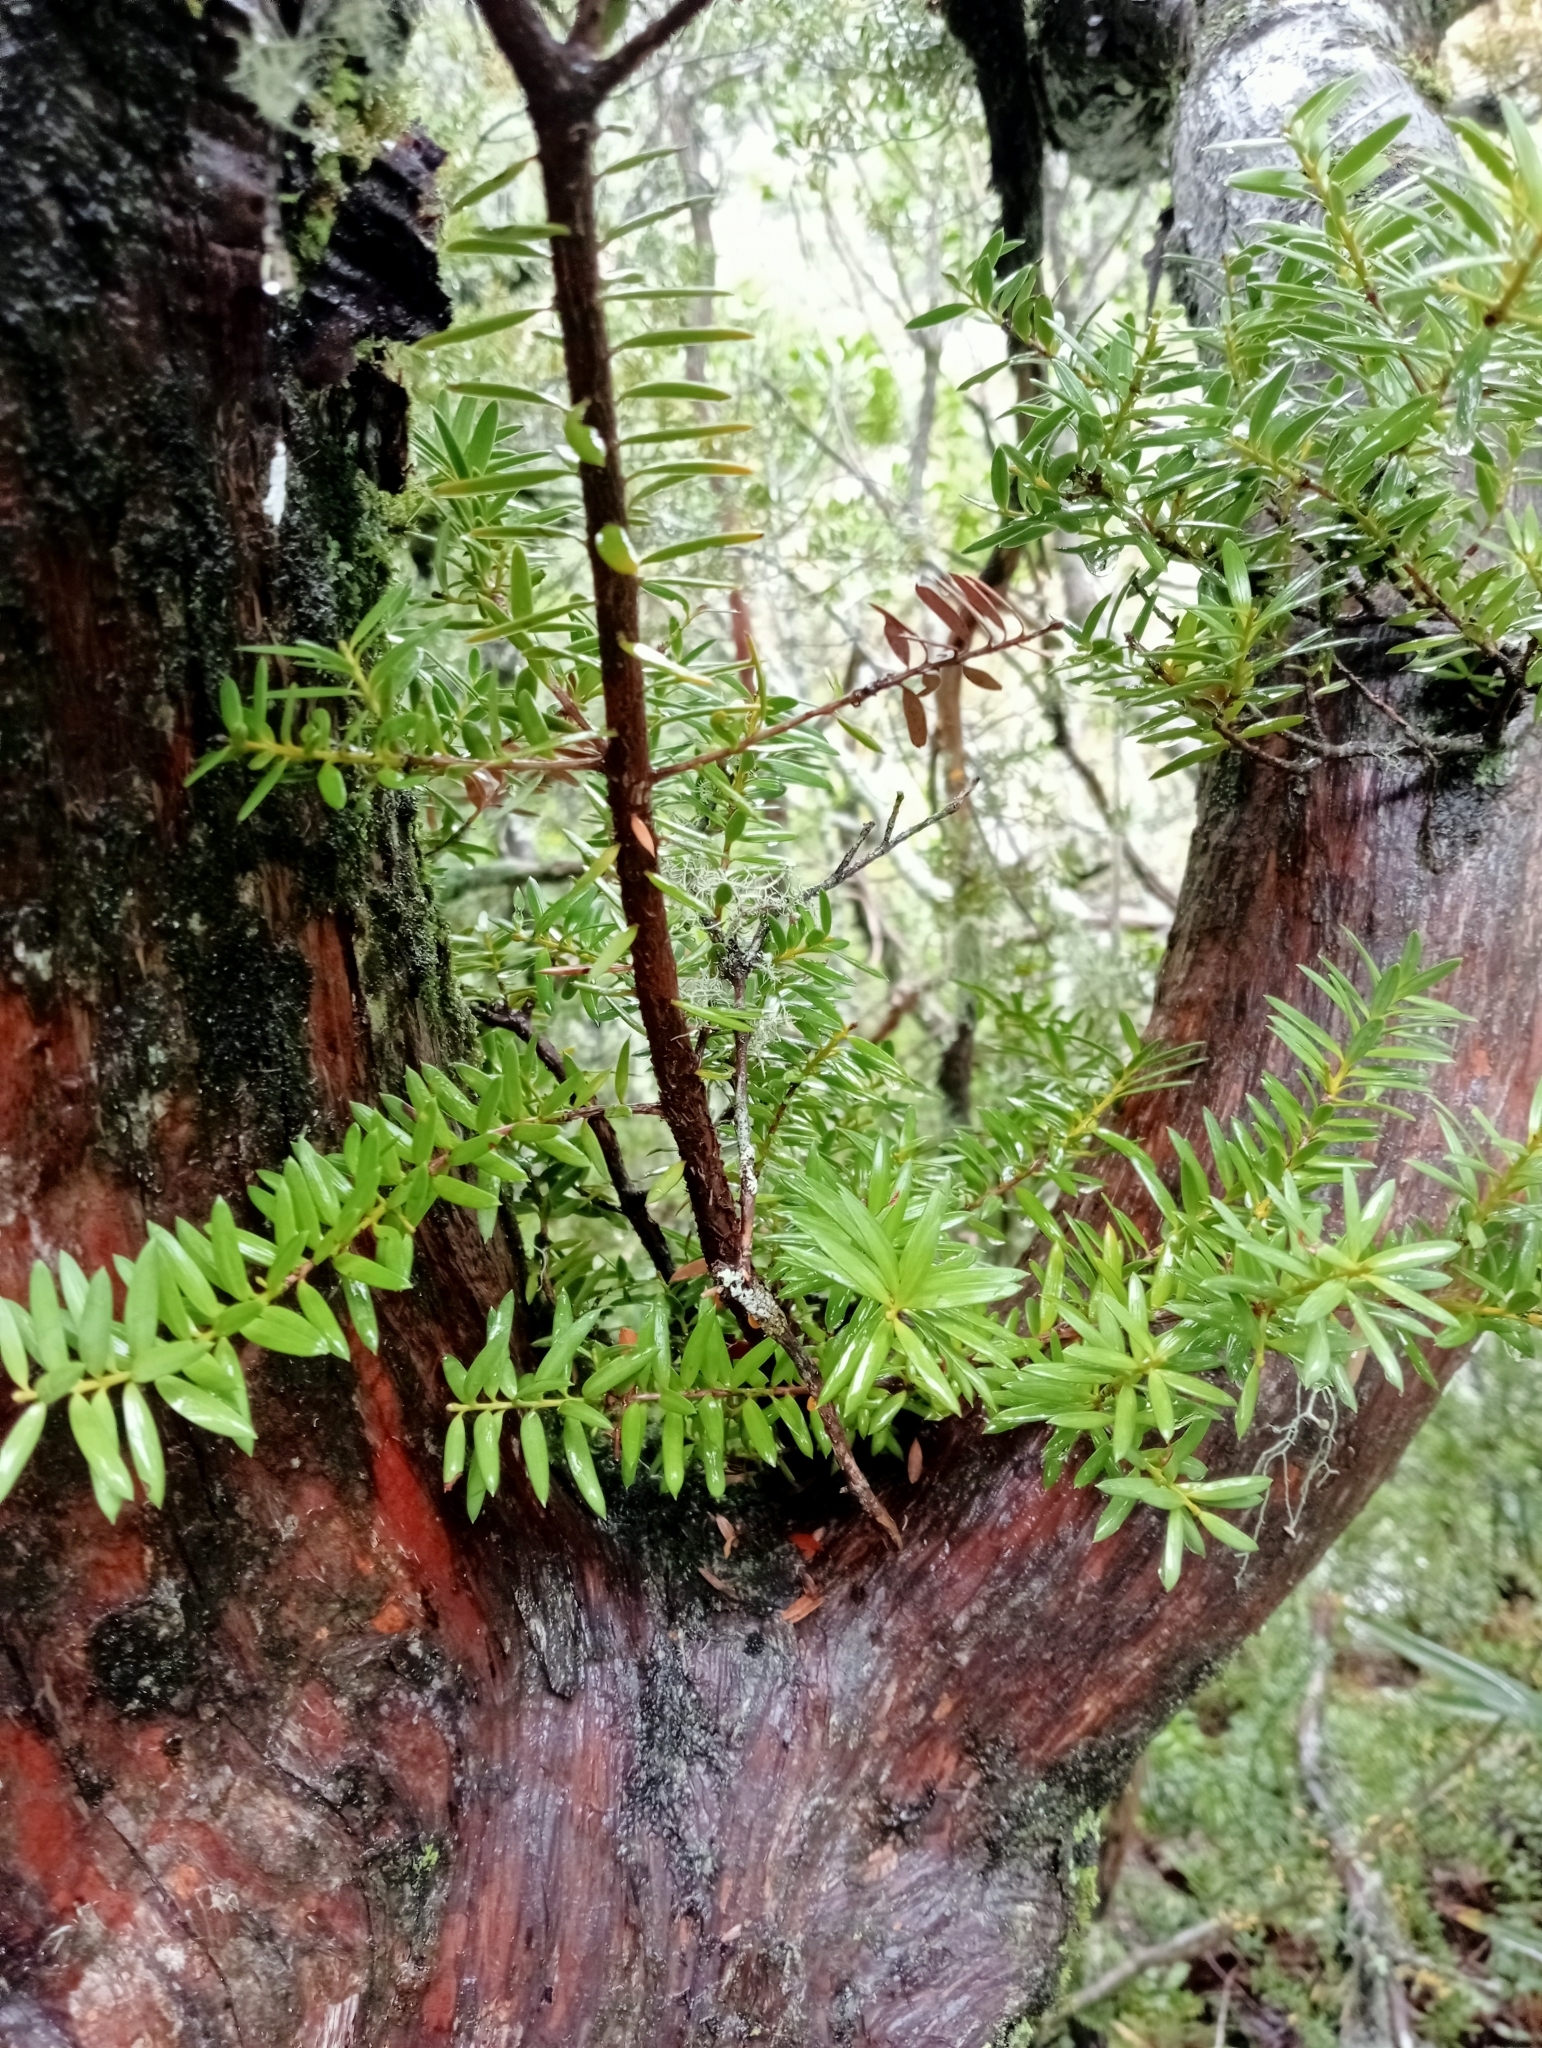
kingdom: Plantae
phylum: Tracheophyta
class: Pinopsida
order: Pinales
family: Podocarpaceae
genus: Podocarpus
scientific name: Podocarpus laetus
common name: Hall's totara
